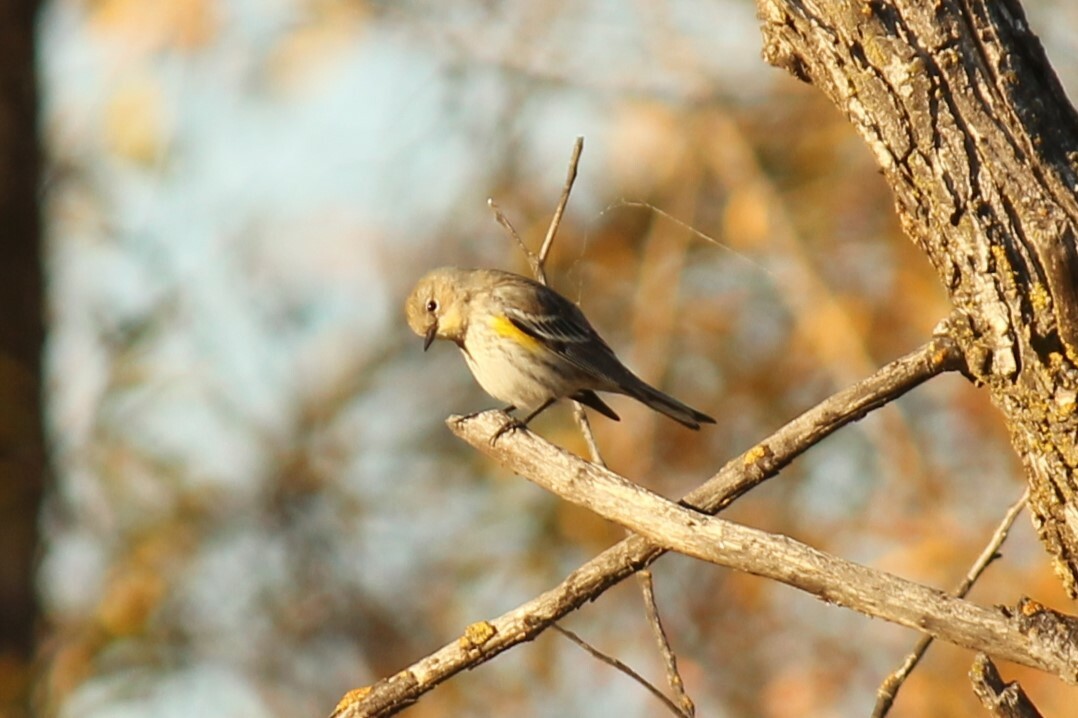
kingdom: Animalia
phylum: Chordata
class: Aves
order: Passeriformes
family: Parulidae
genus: Setophaga
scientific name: Setophaga coronata
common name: Myrtle warbler
